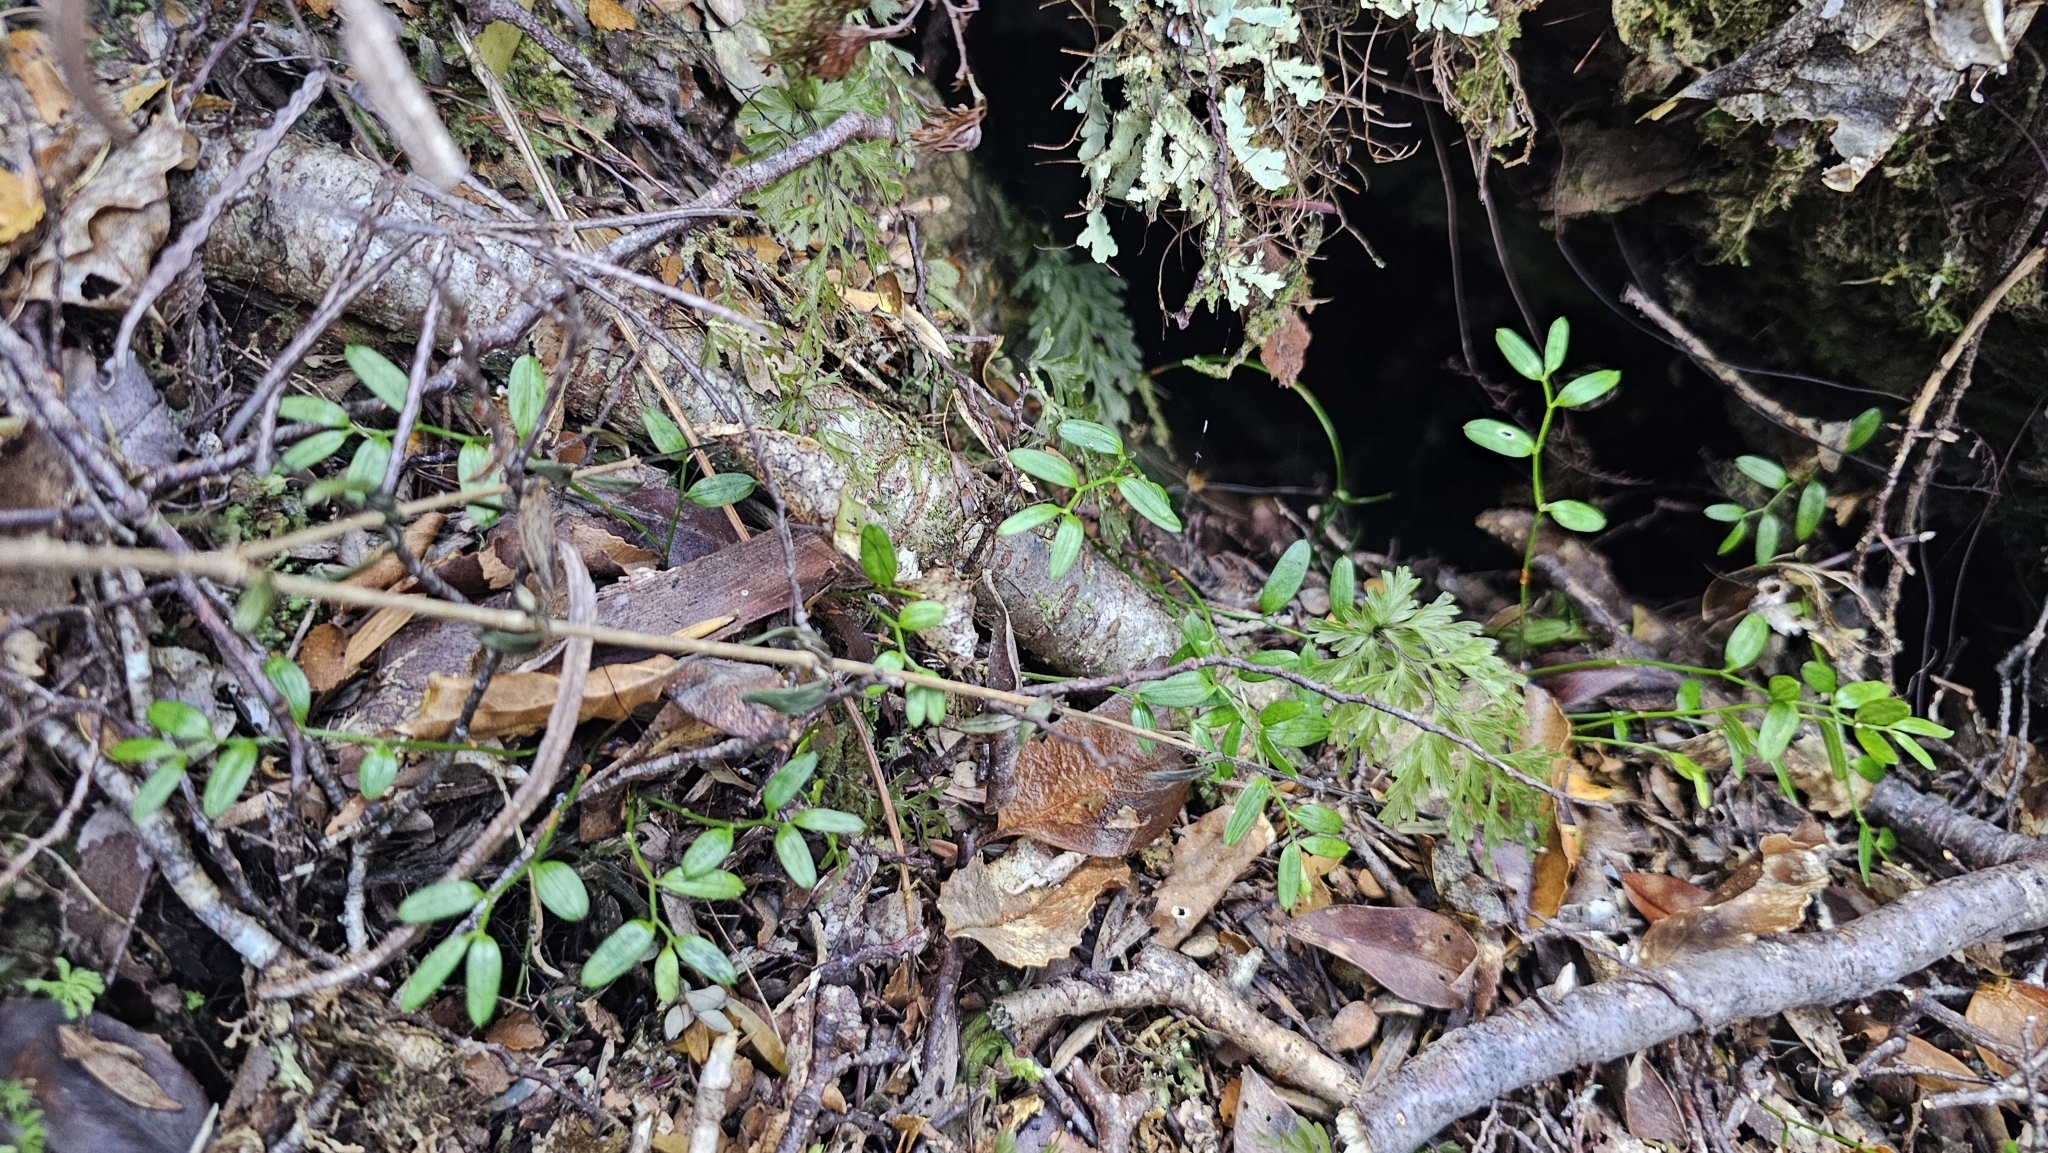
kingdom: Plantae
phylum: Tracheophyta
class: Liliopsida
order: Liliales
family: Alstroemeriaceae
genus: Luzuriaga
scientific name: Luzuriaga parviflora
